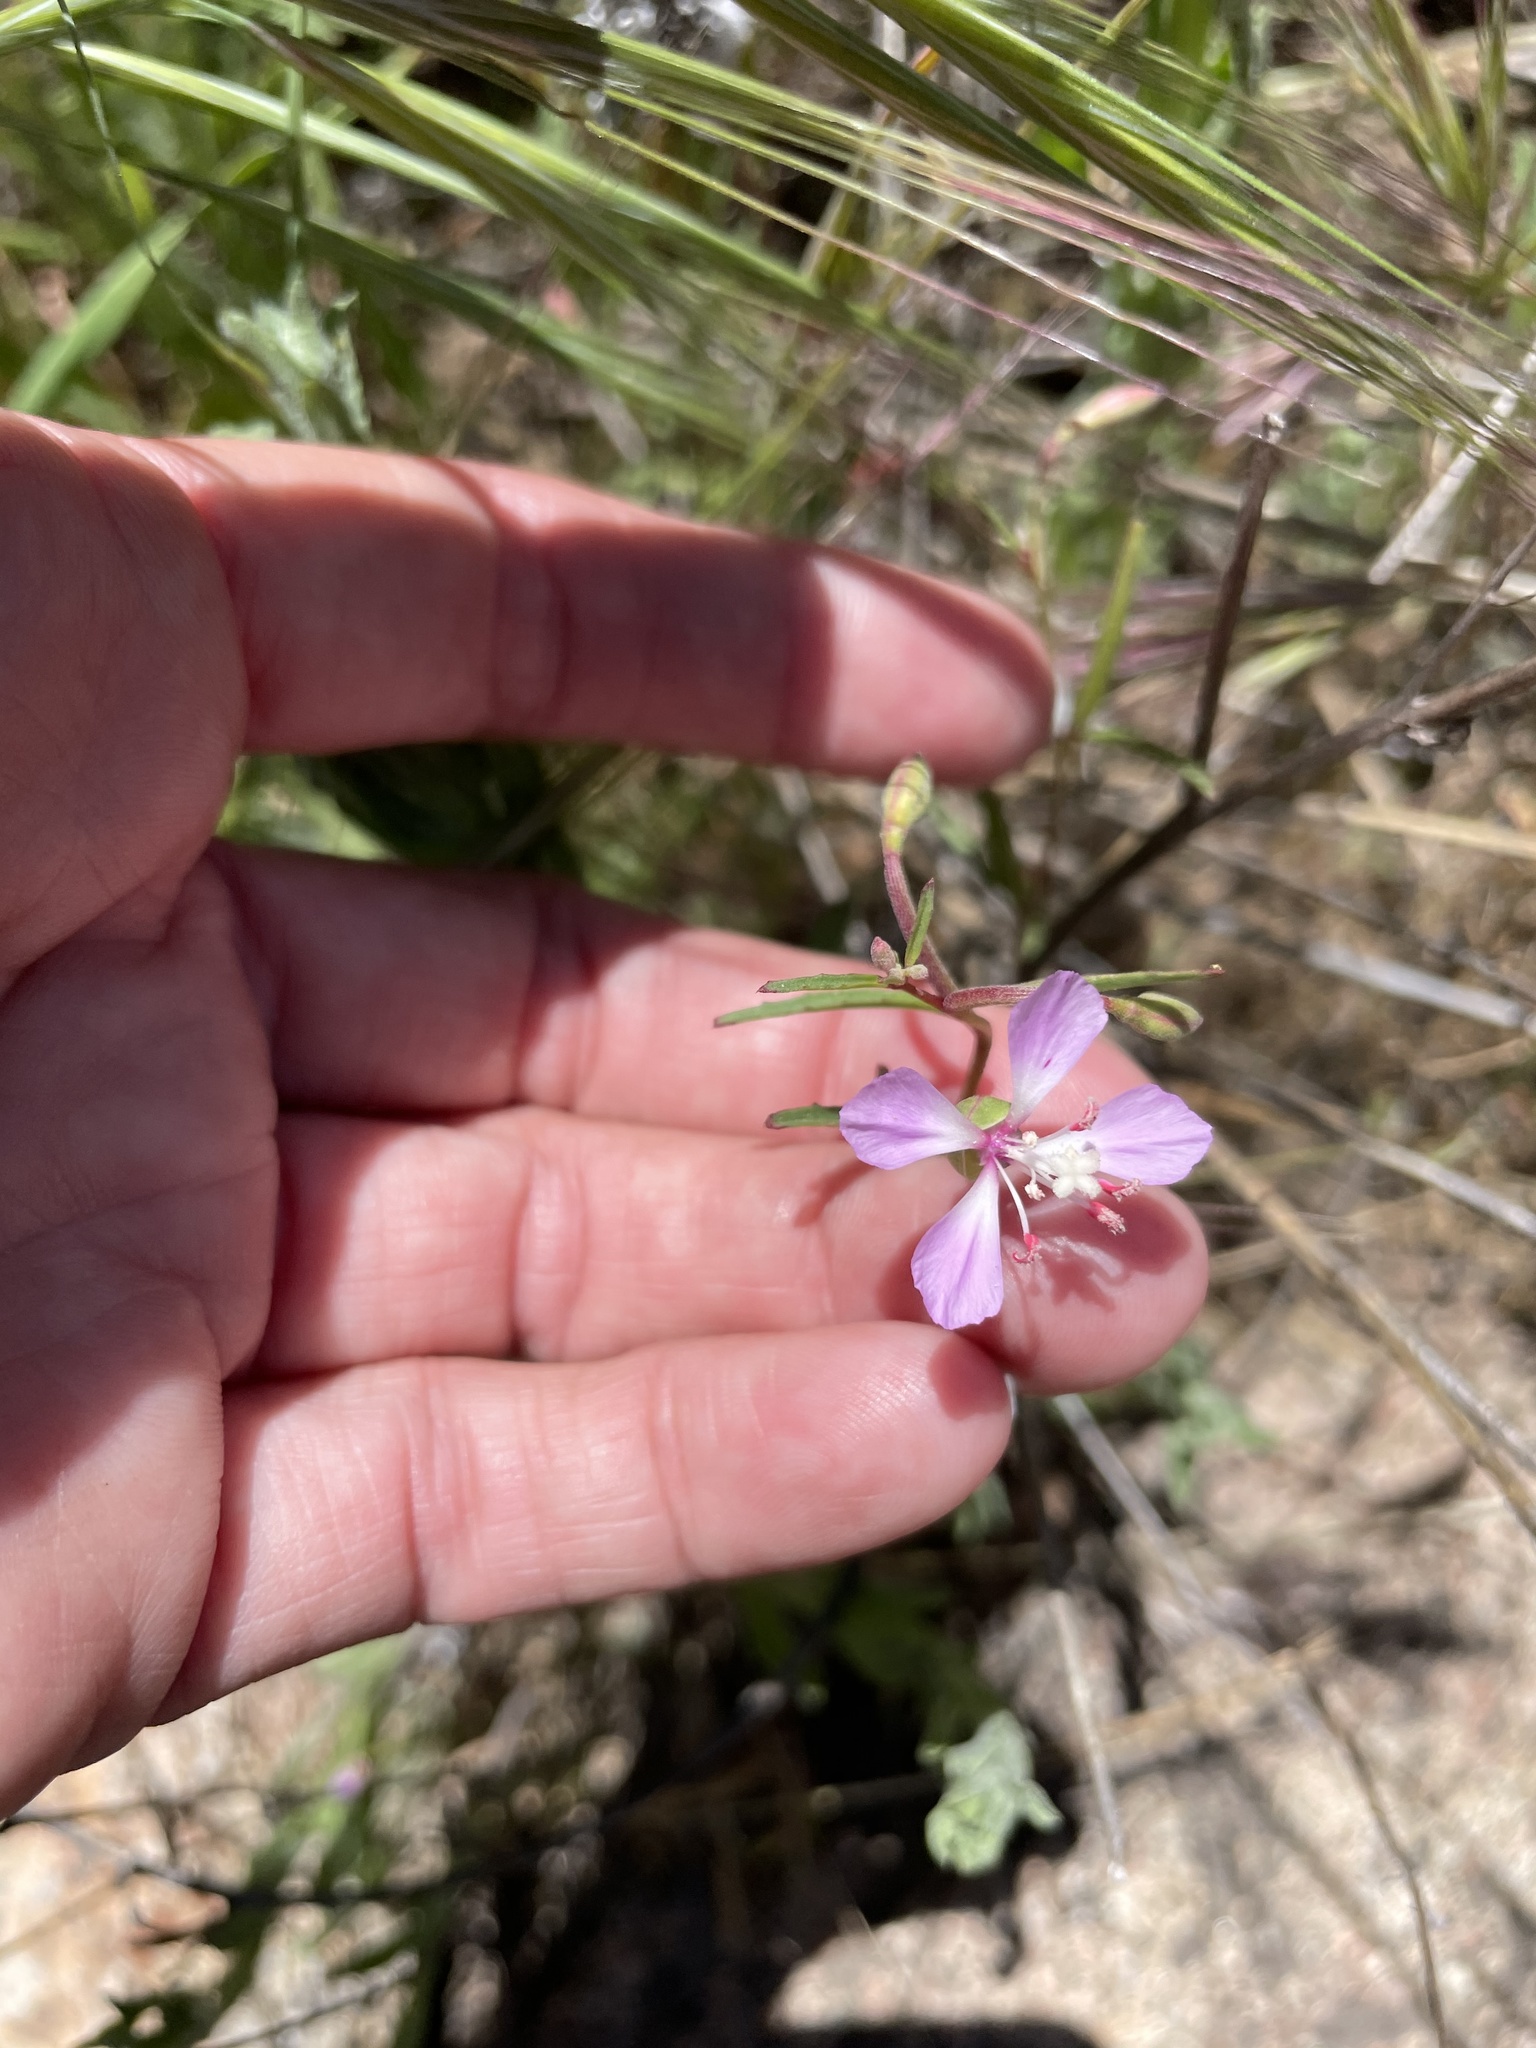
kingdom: Plantae
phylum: Tracheophyta
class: Magnoliopsida
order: Myrtales
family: Onagraceae
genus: Clarkia
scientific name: Clarkia delicata
